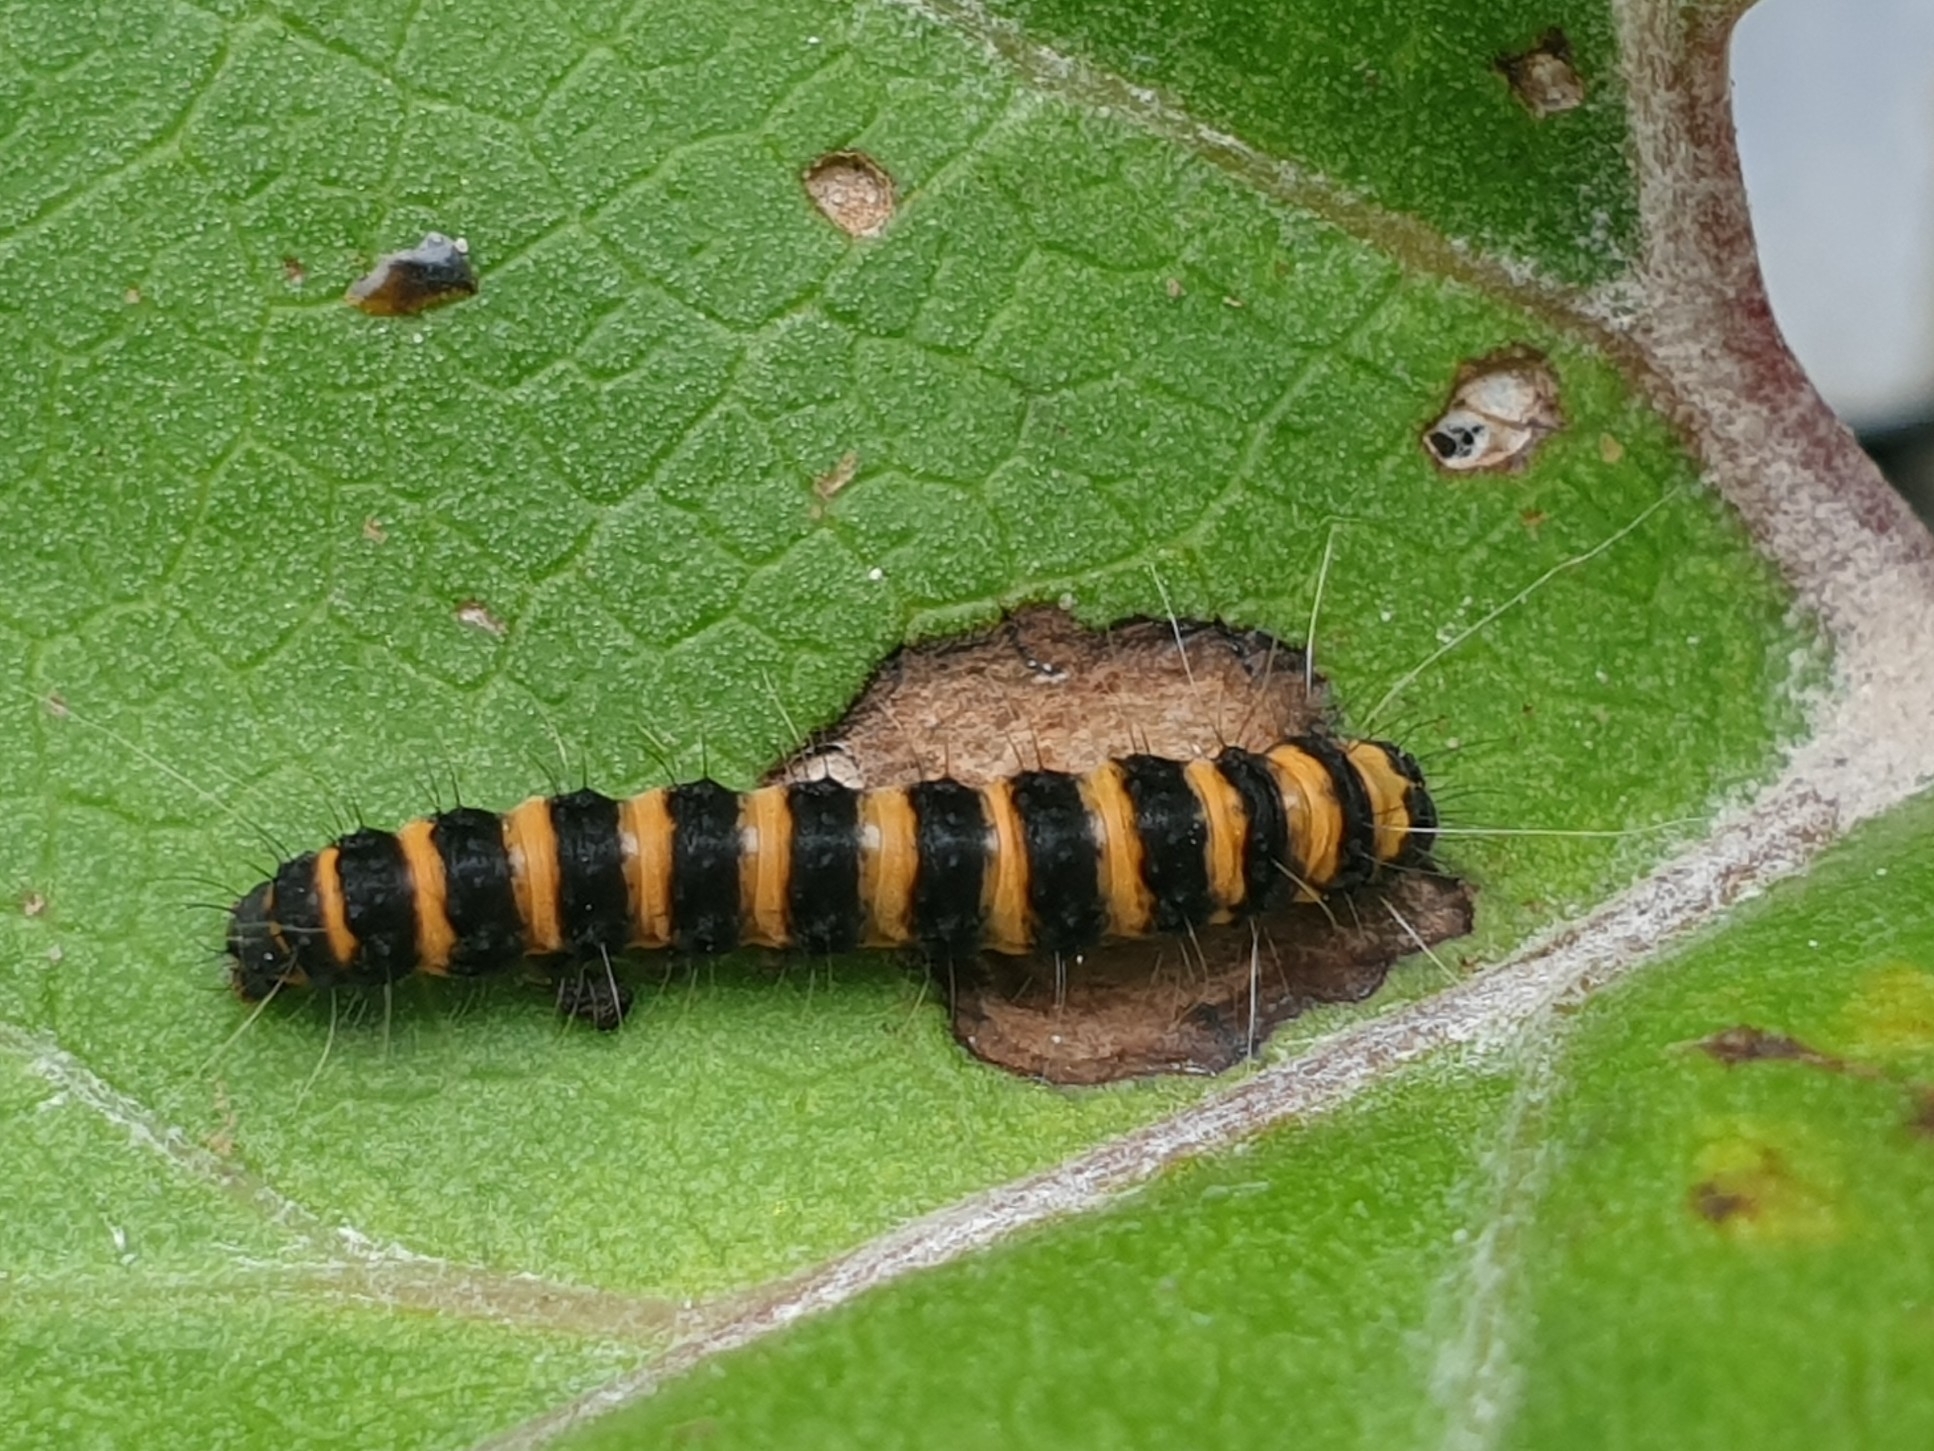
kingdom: Animalia
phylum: Arthropoda
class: Insecta
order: Lepidoptera
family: Erebidae
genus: Tyria
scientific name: Tyria jacobaeae
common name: Cinnabar
